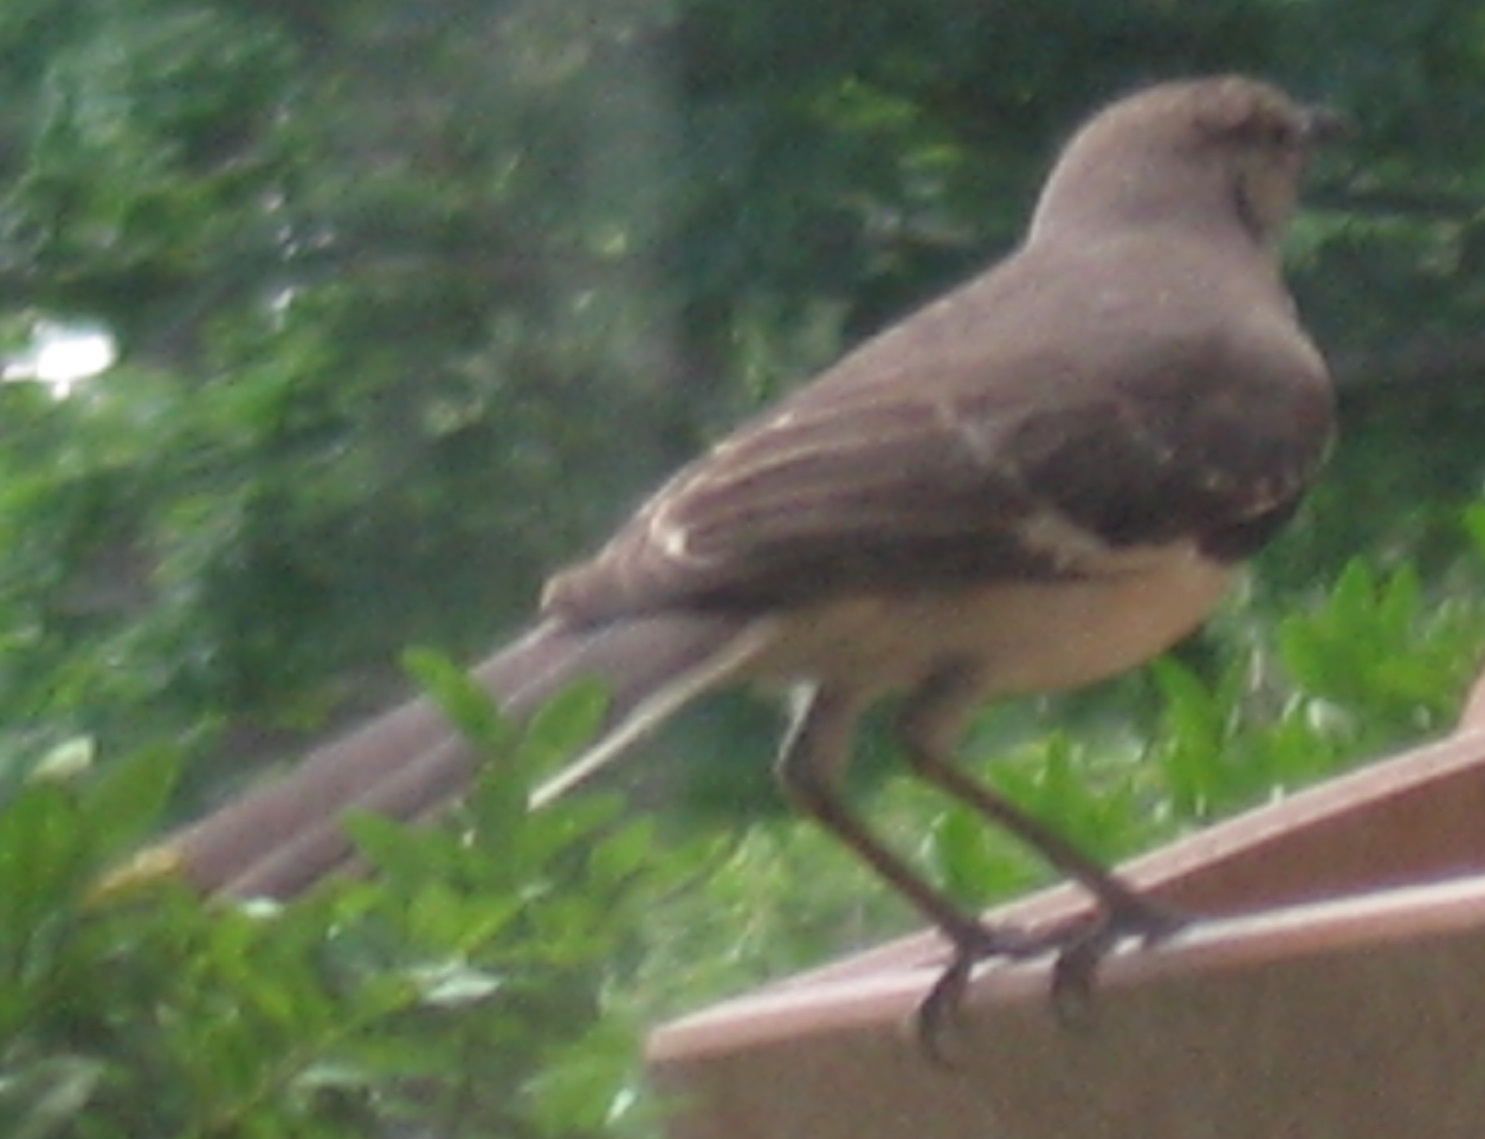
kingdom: Animalia
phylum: Chordata
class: Aves
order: Passeriformes
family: Mimidae
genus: Mimus
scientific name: Mimus polyglottos
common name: Northern mockingbird
